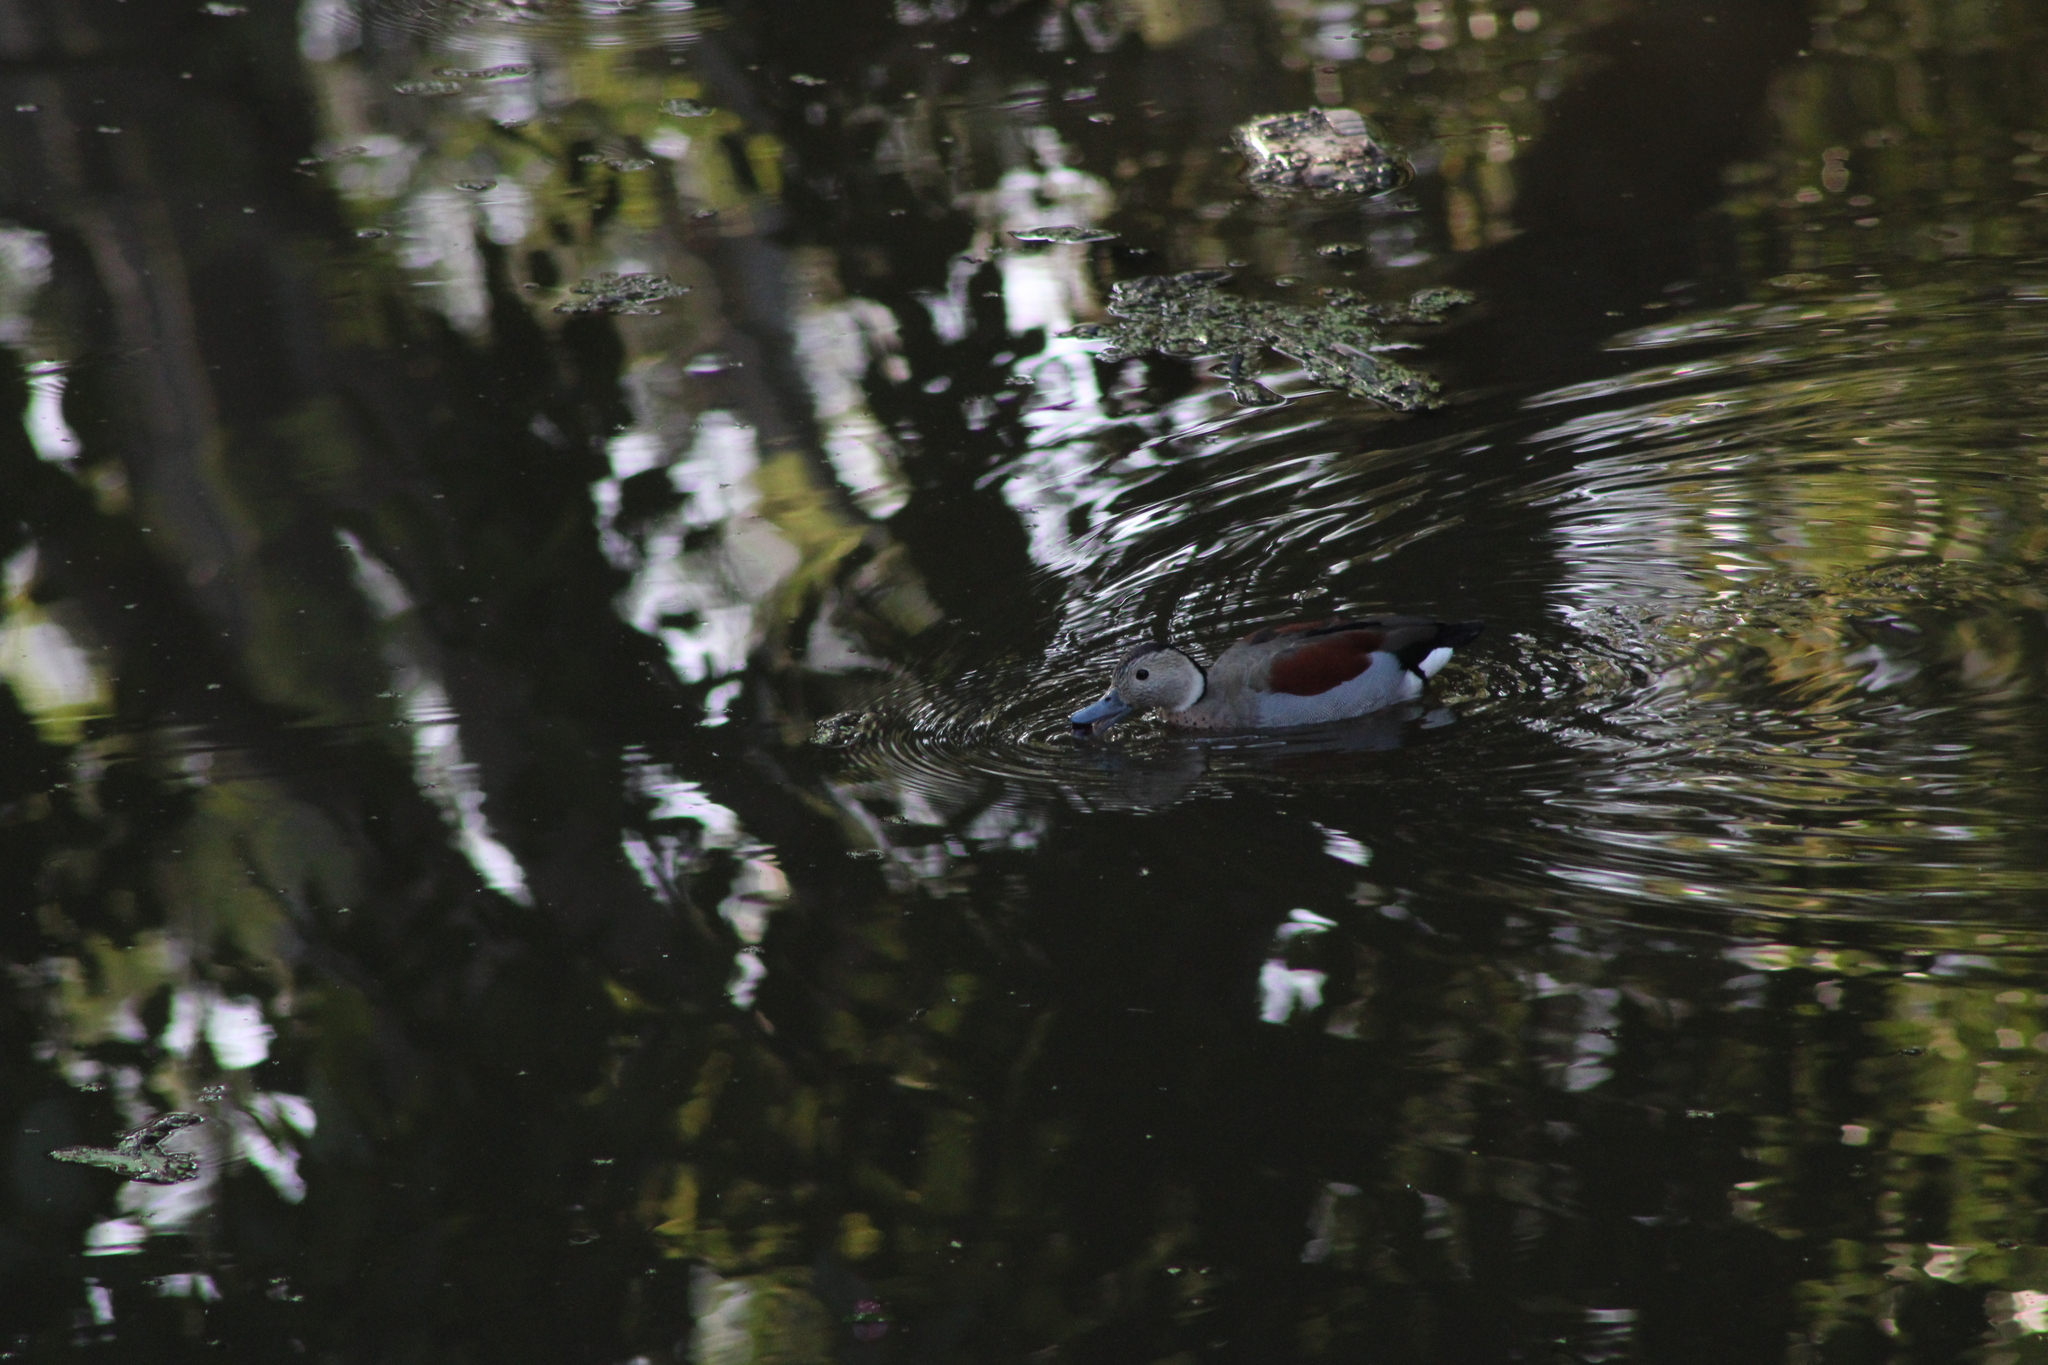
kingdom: Animalia
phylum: Chordata
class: Aves
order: Anseriformes
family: Anatidae
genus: Callonetta
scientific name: Callonetta leucophrys
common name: Ringed teal
